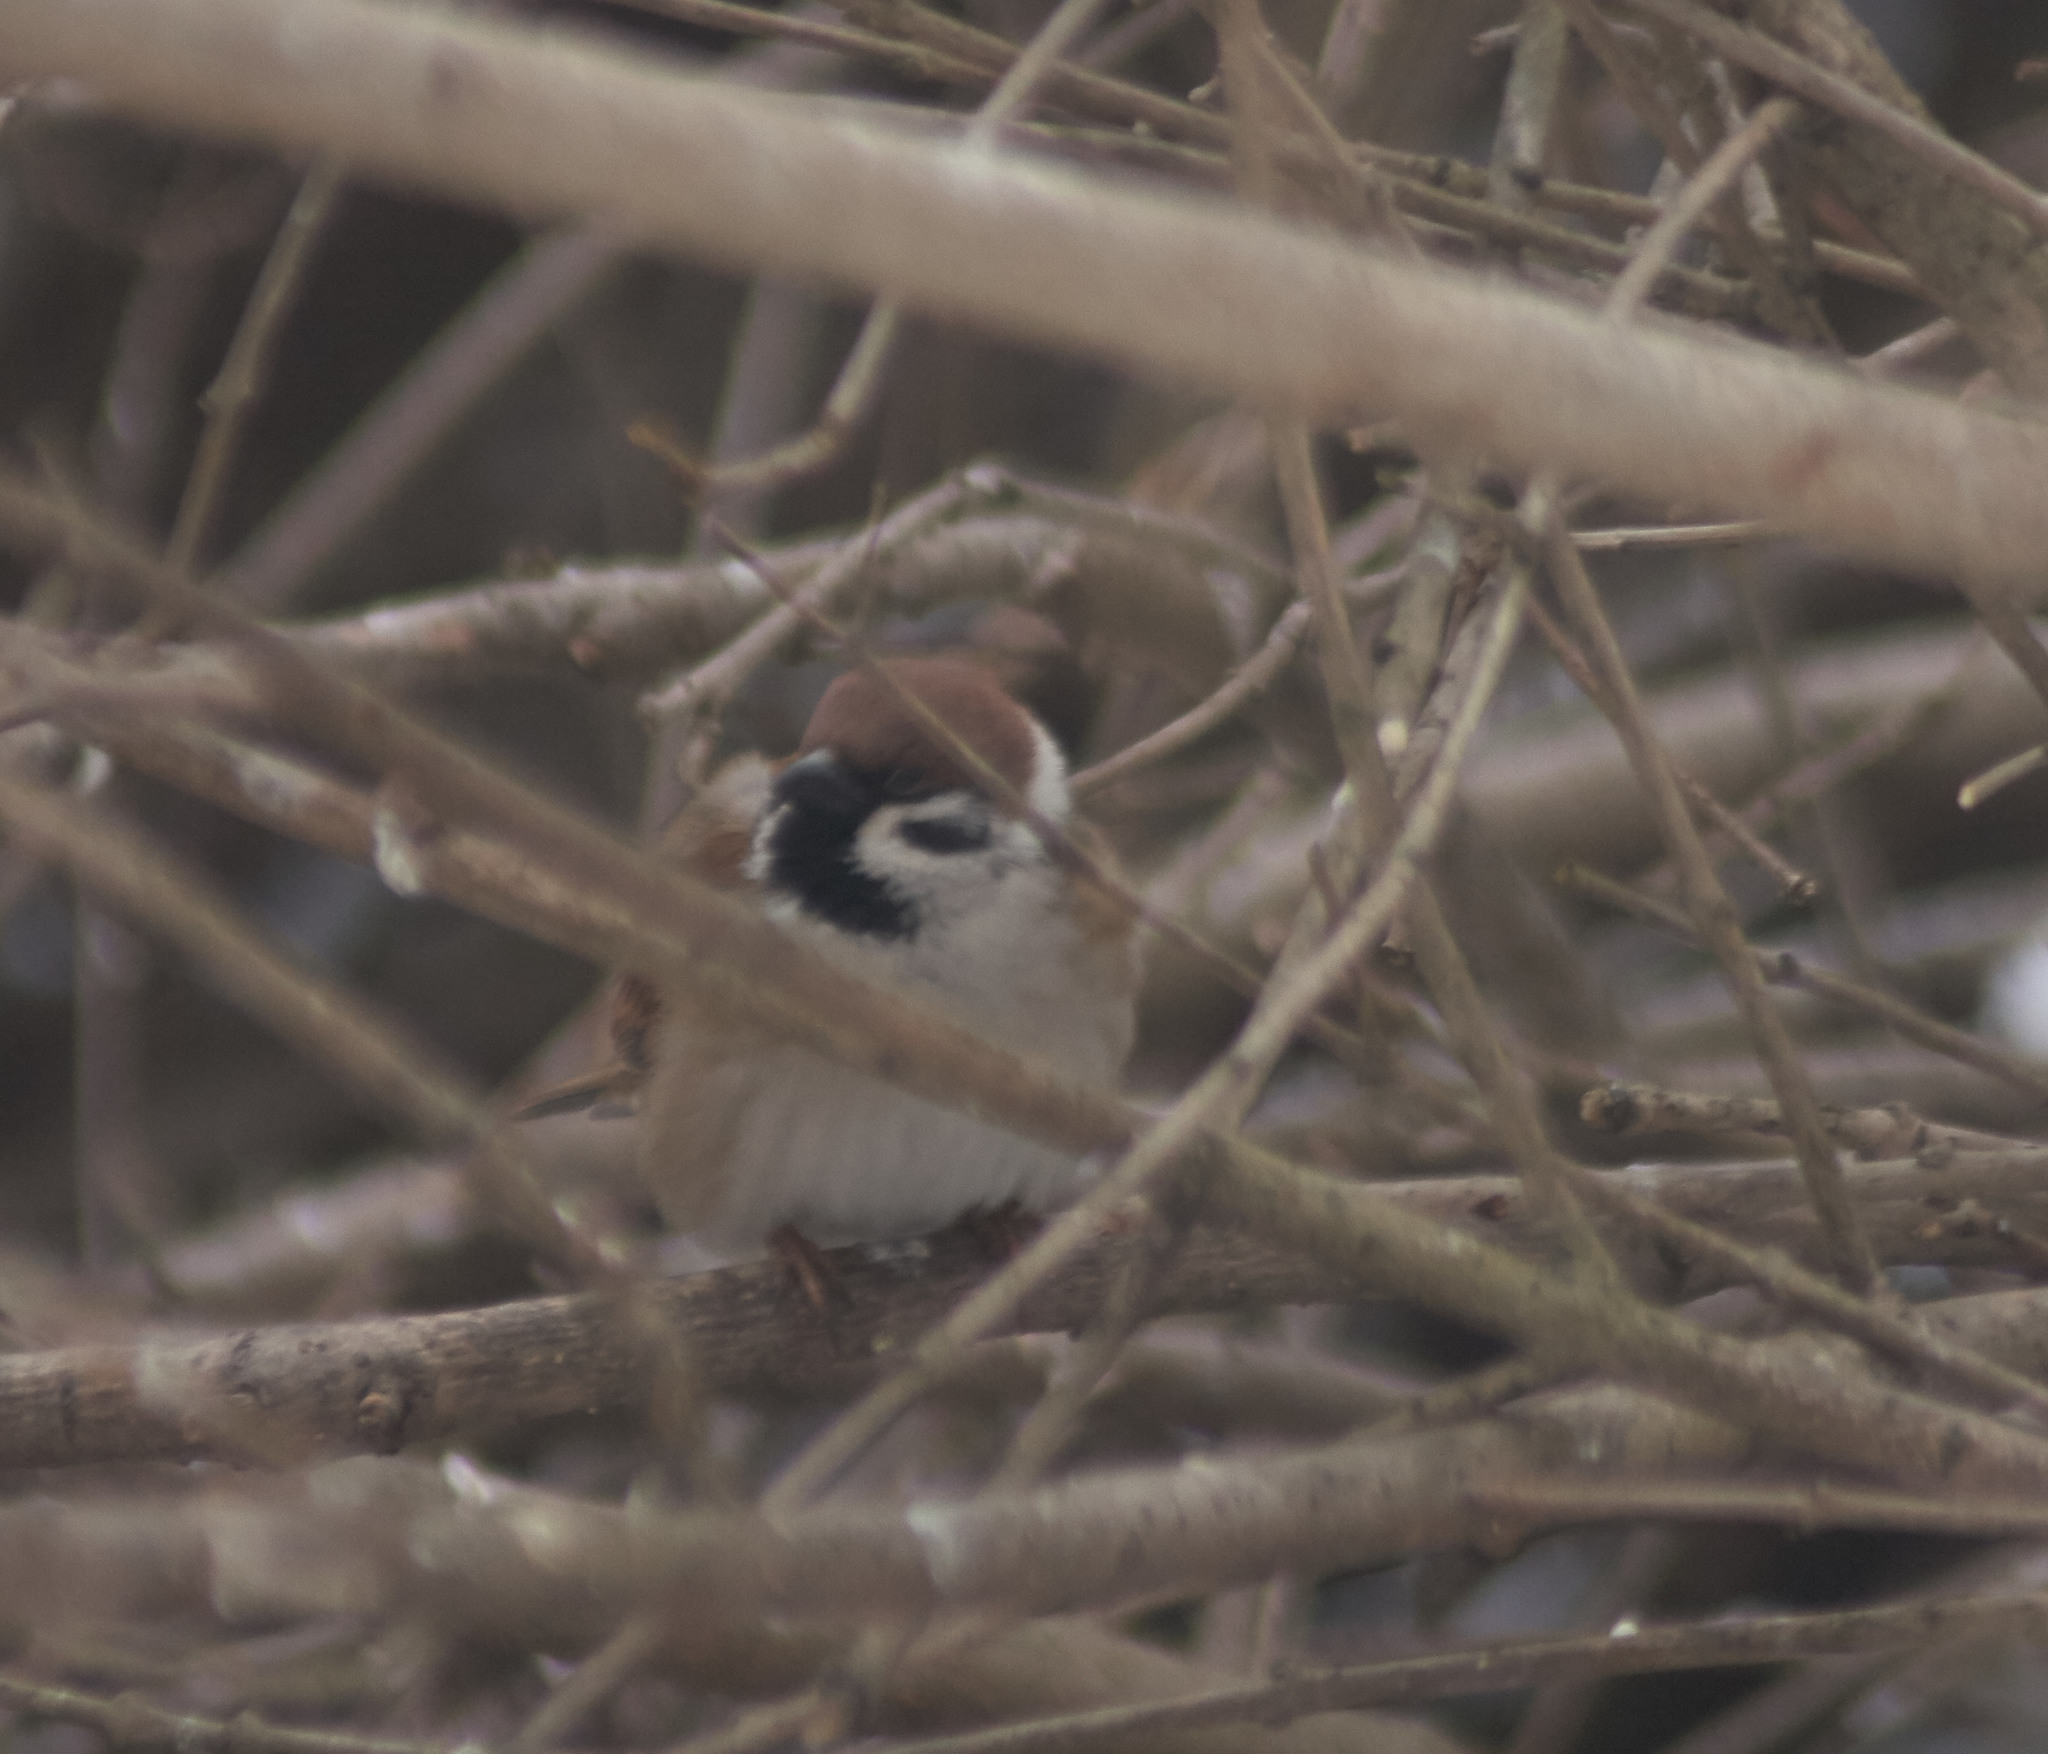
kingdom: Animalia
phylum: Chordata
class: Aves
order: Passeriformes
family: Passeridae
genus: Passer
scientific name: Passer montanus
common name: Eurasian tree sparrow
